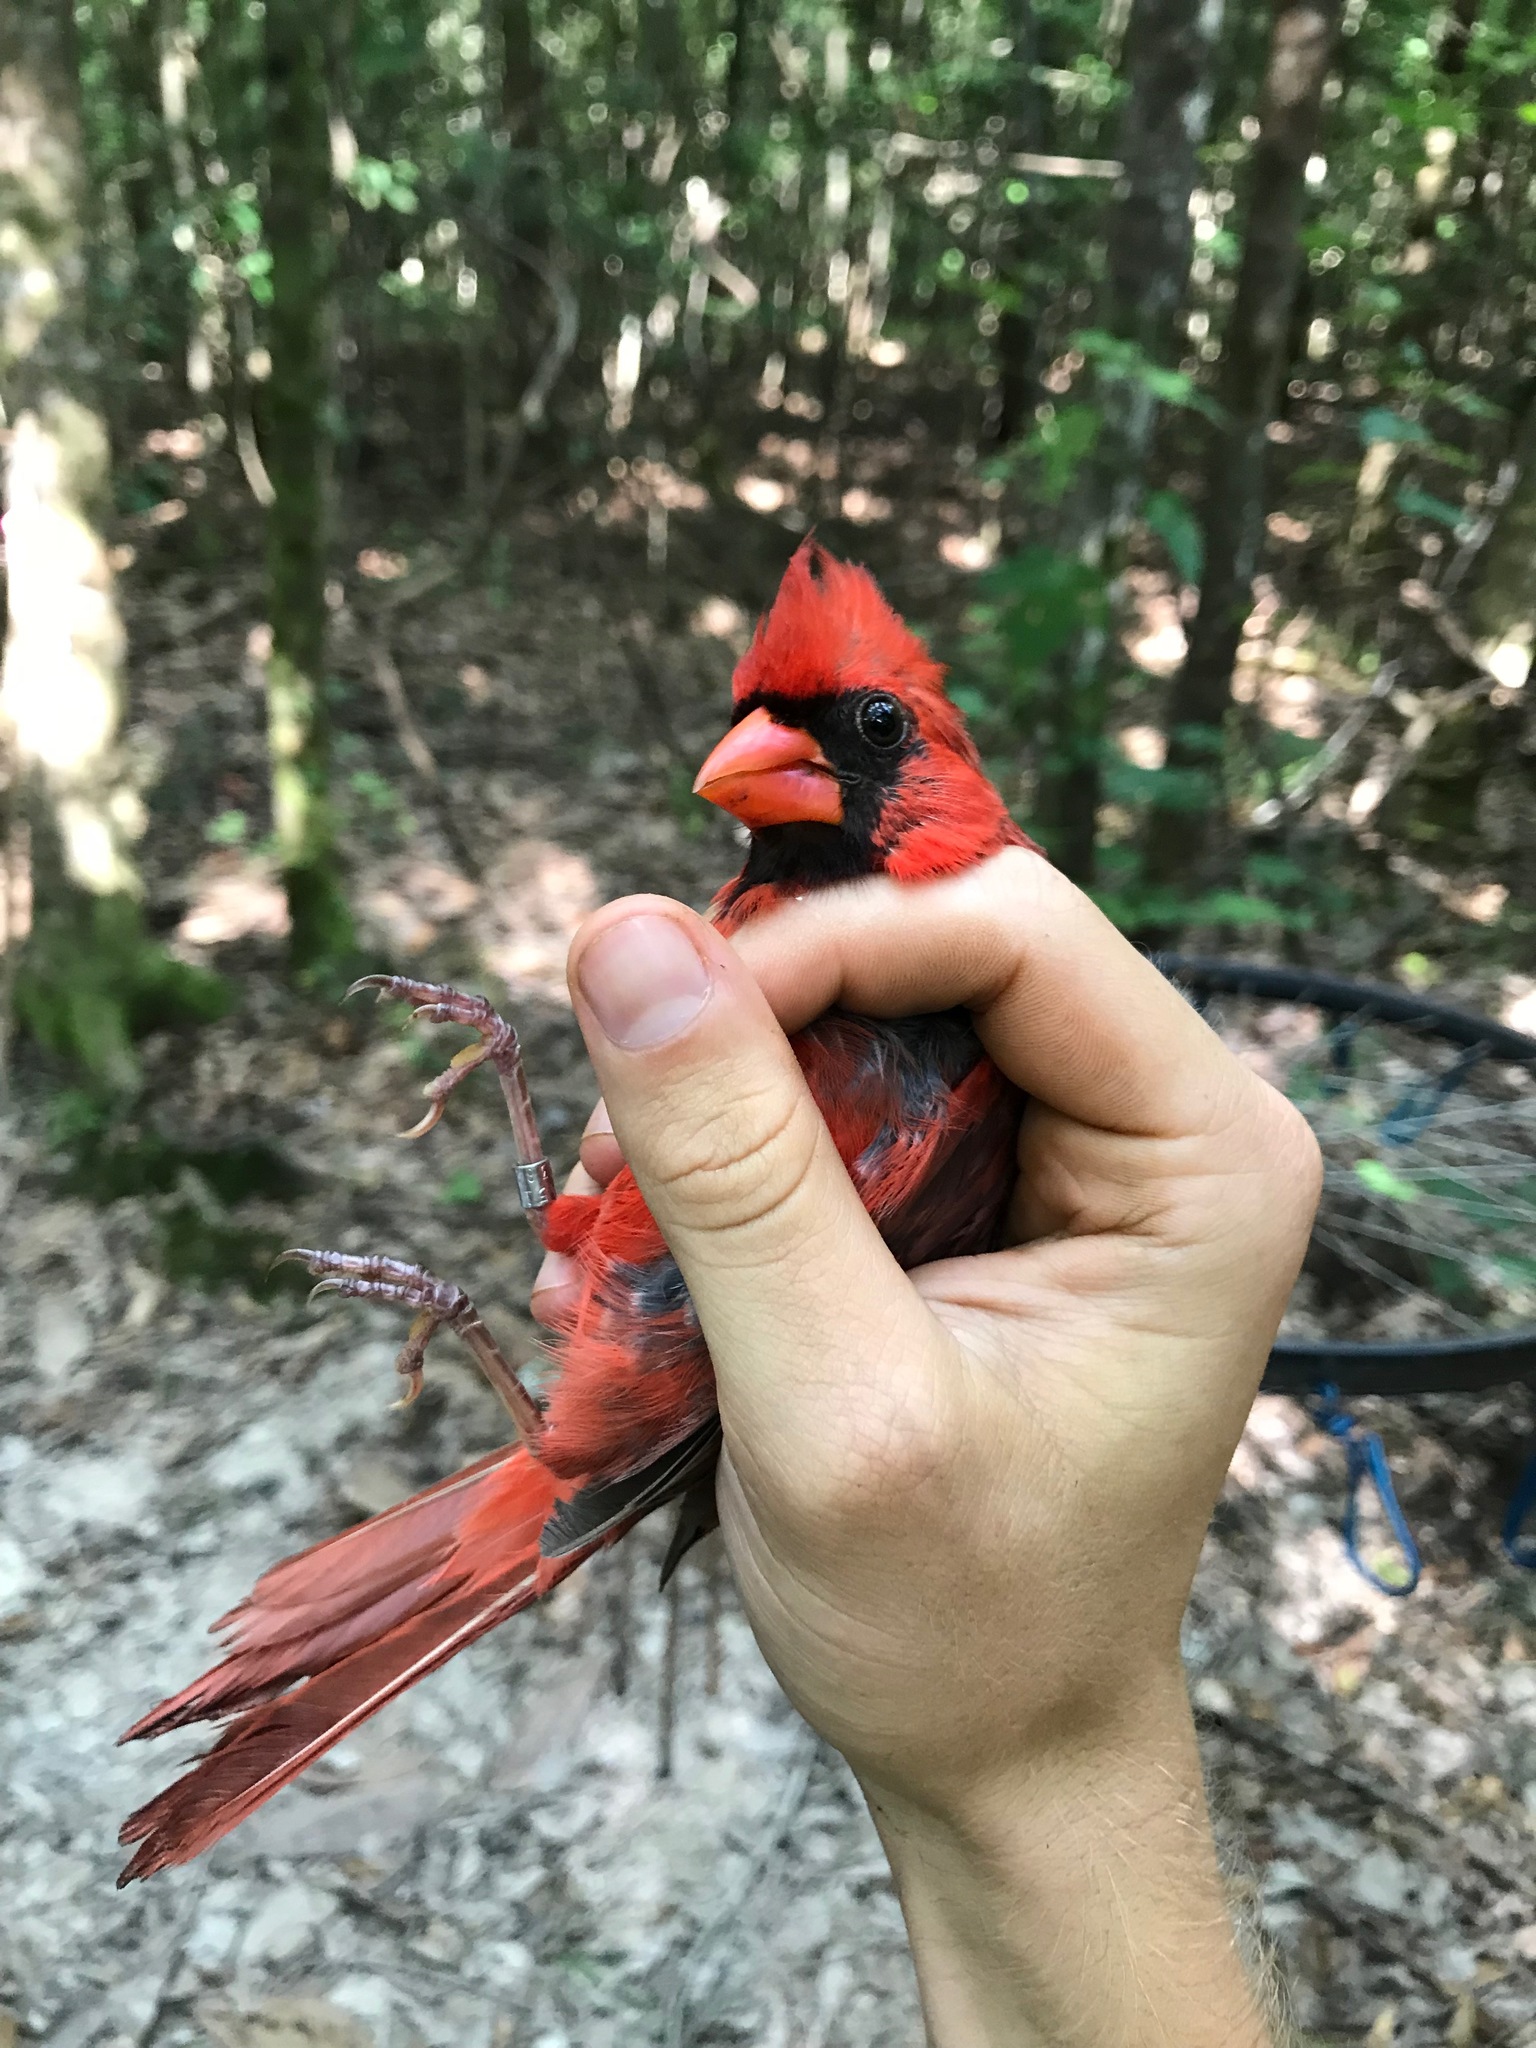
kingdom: Animalia
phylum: Chordata
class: Aves
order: Passeriformes
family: Cardinalidae
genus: Cardinalis
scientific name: Cardinalis cardinalis
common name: Northern cardinal
